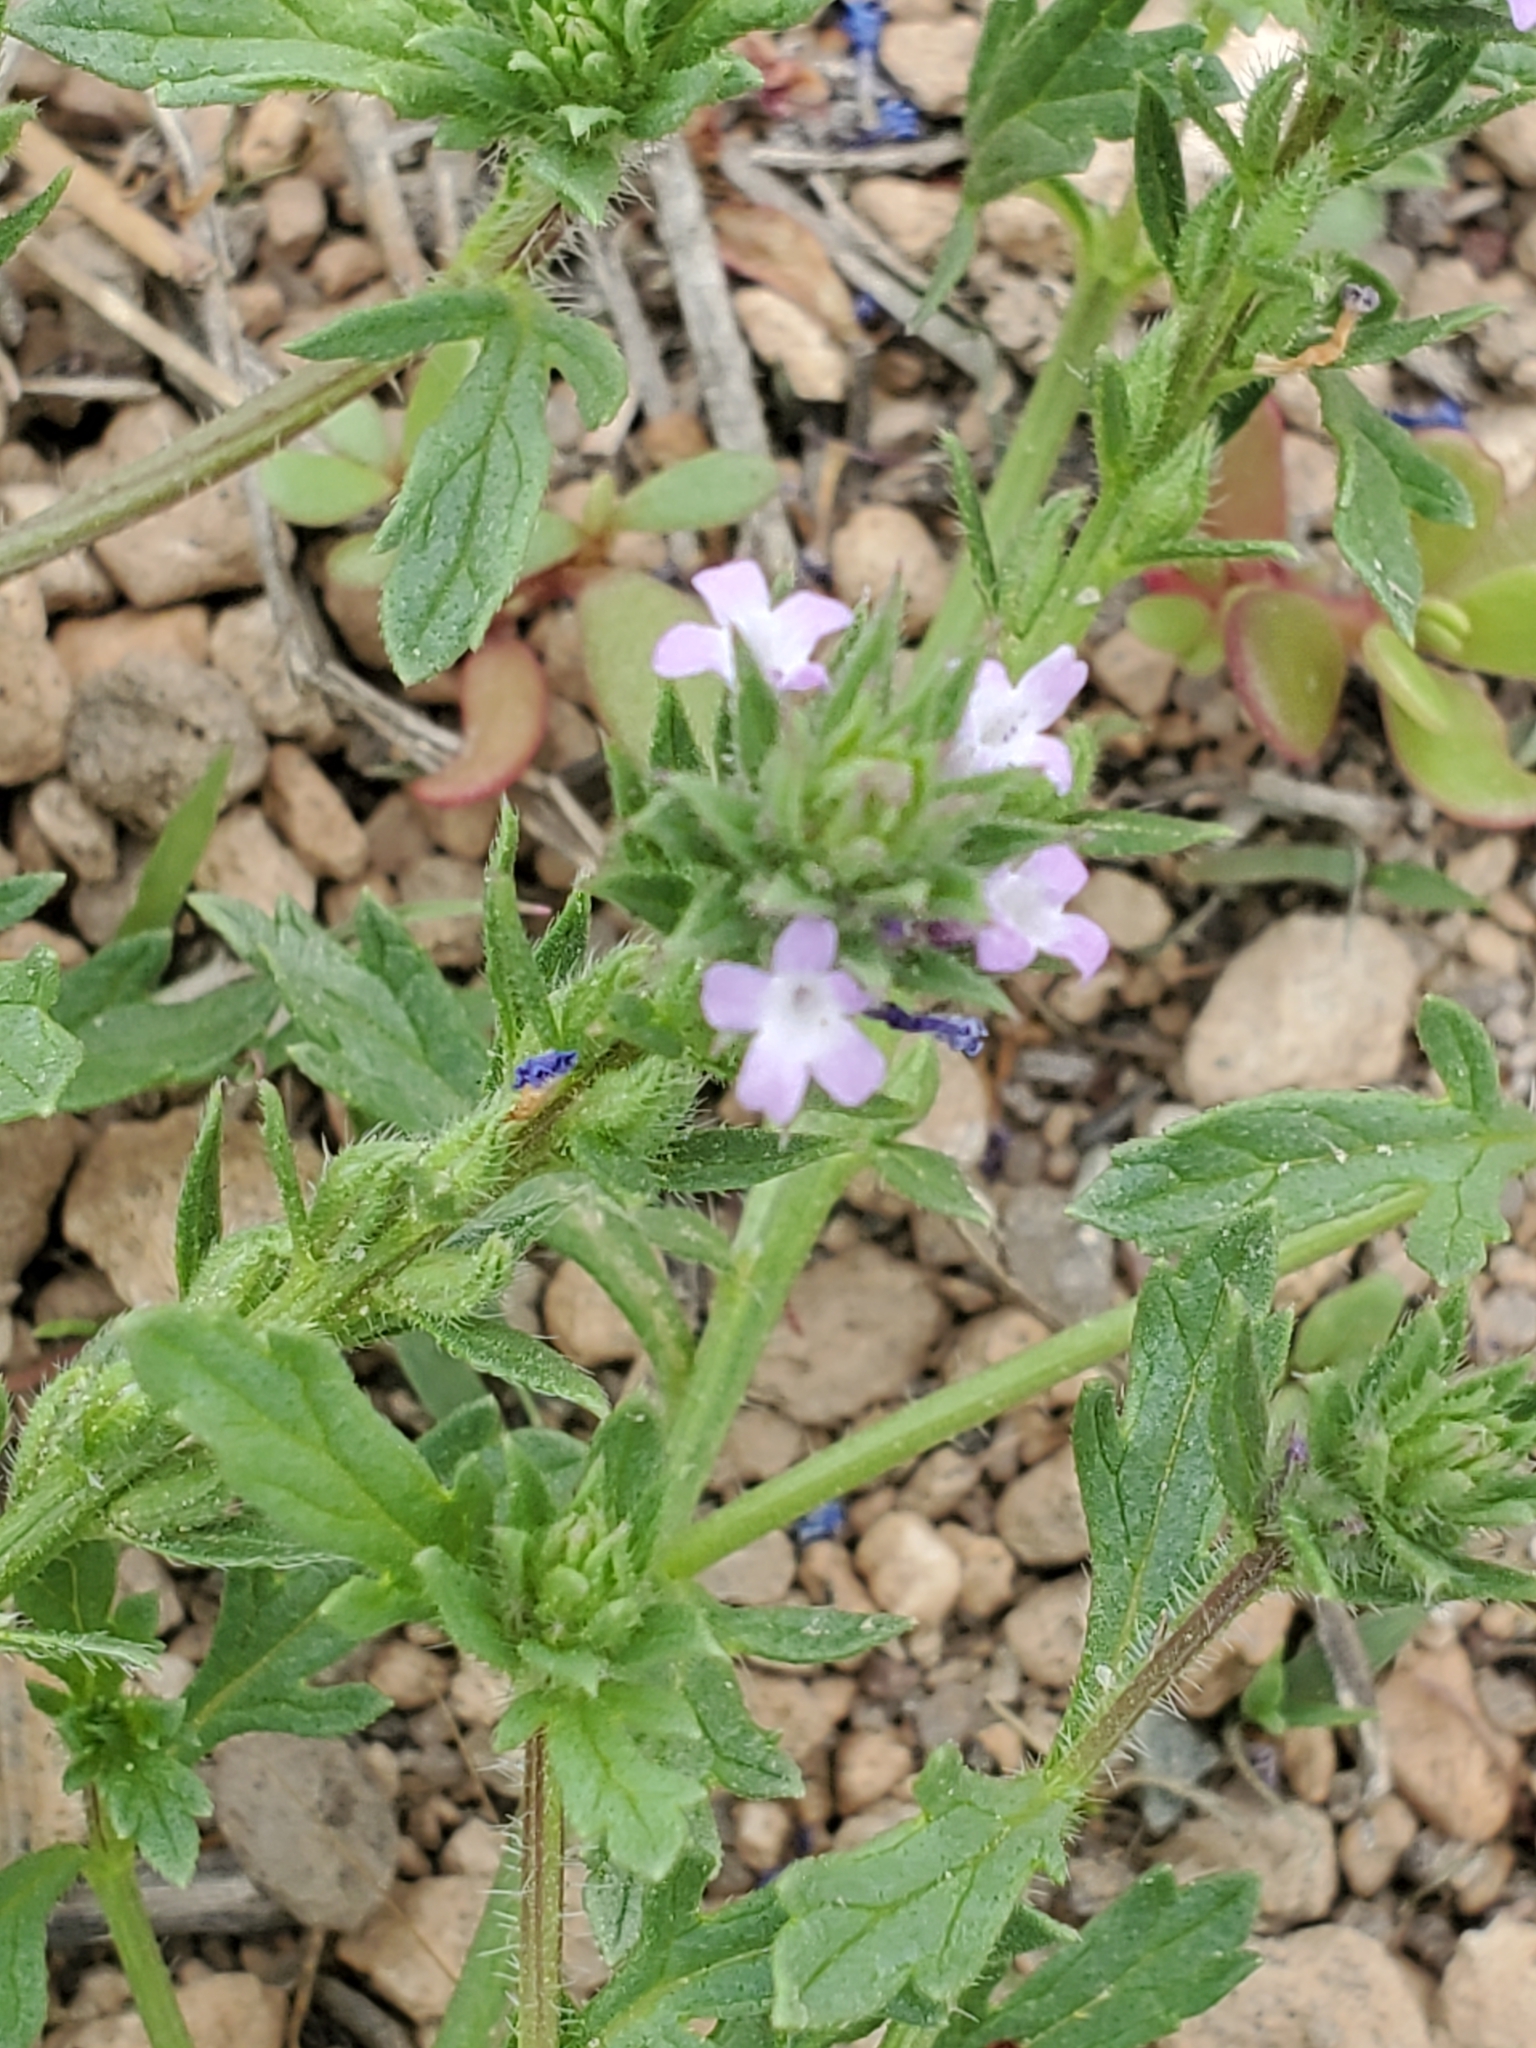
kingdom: Plantae
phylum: Tracheophyta
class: Magnoliopsida
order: Lamiales
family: Verbenaceae
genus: Verbena
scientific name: Verbena bracteata
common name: Bracted vervain
